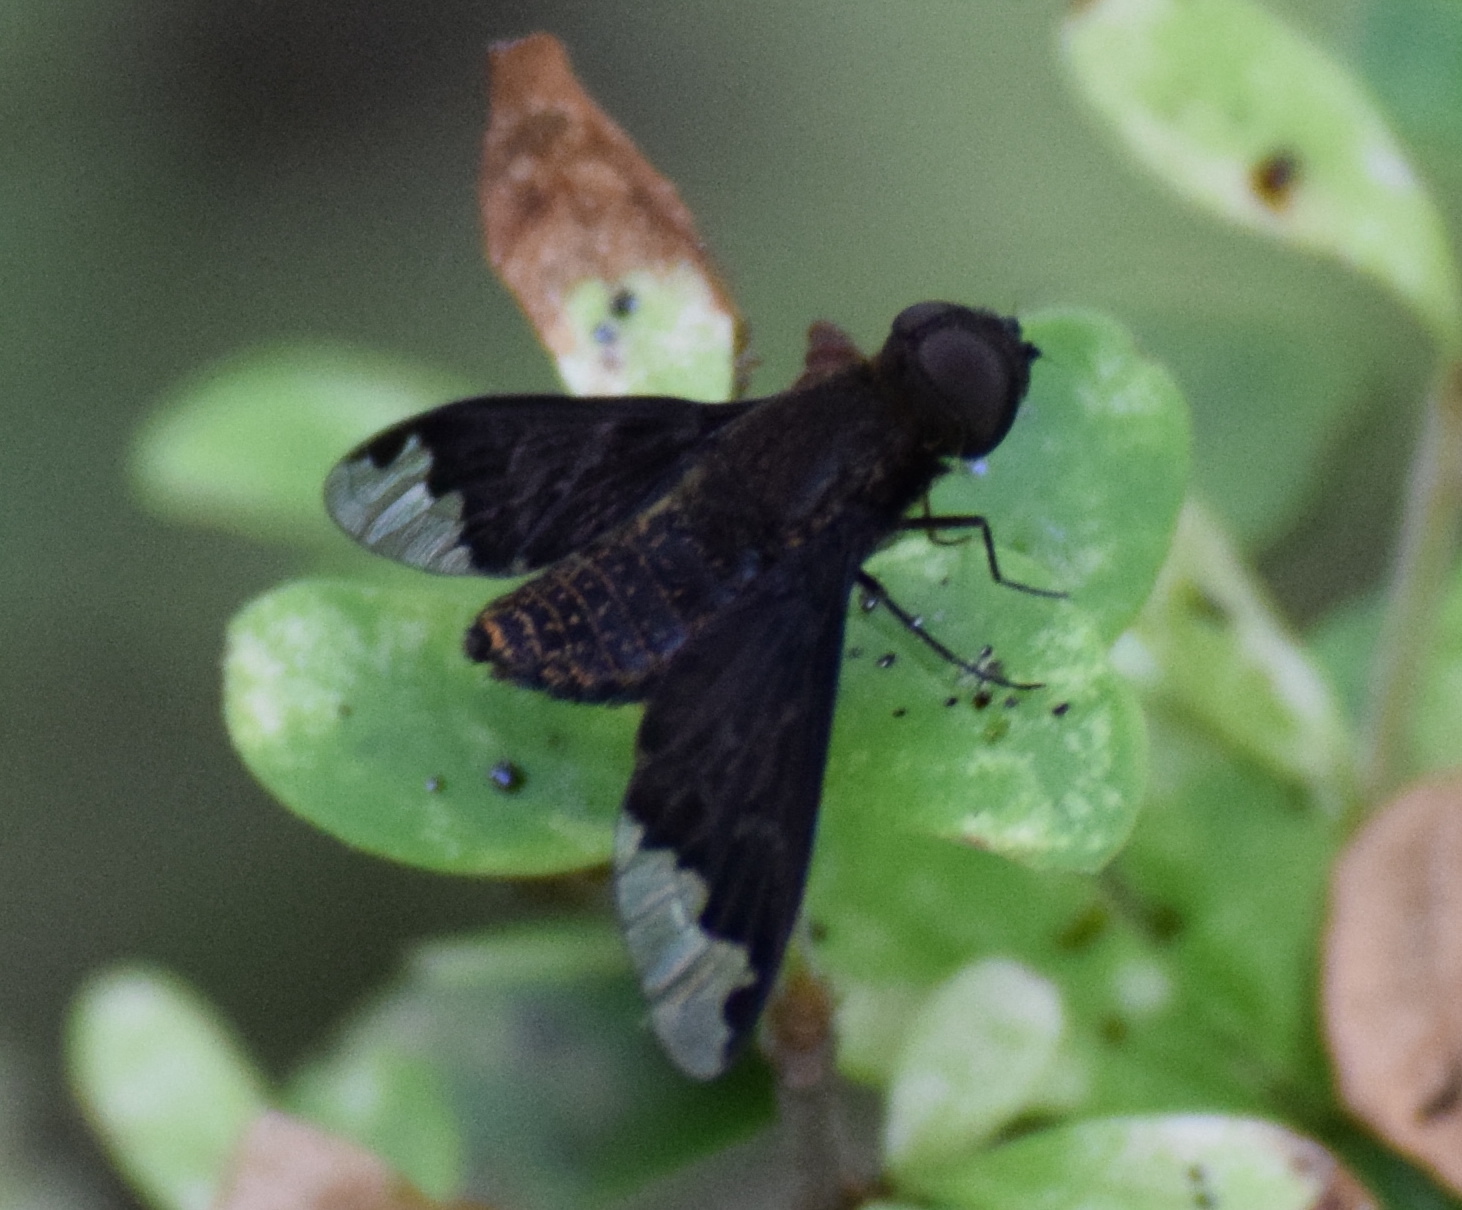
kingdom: Animalia
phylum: Arthropoda
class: Insecta
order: Diptera
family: Bombyliidae
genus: Hemipenthes
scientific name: Hemipenthes sinuosus
